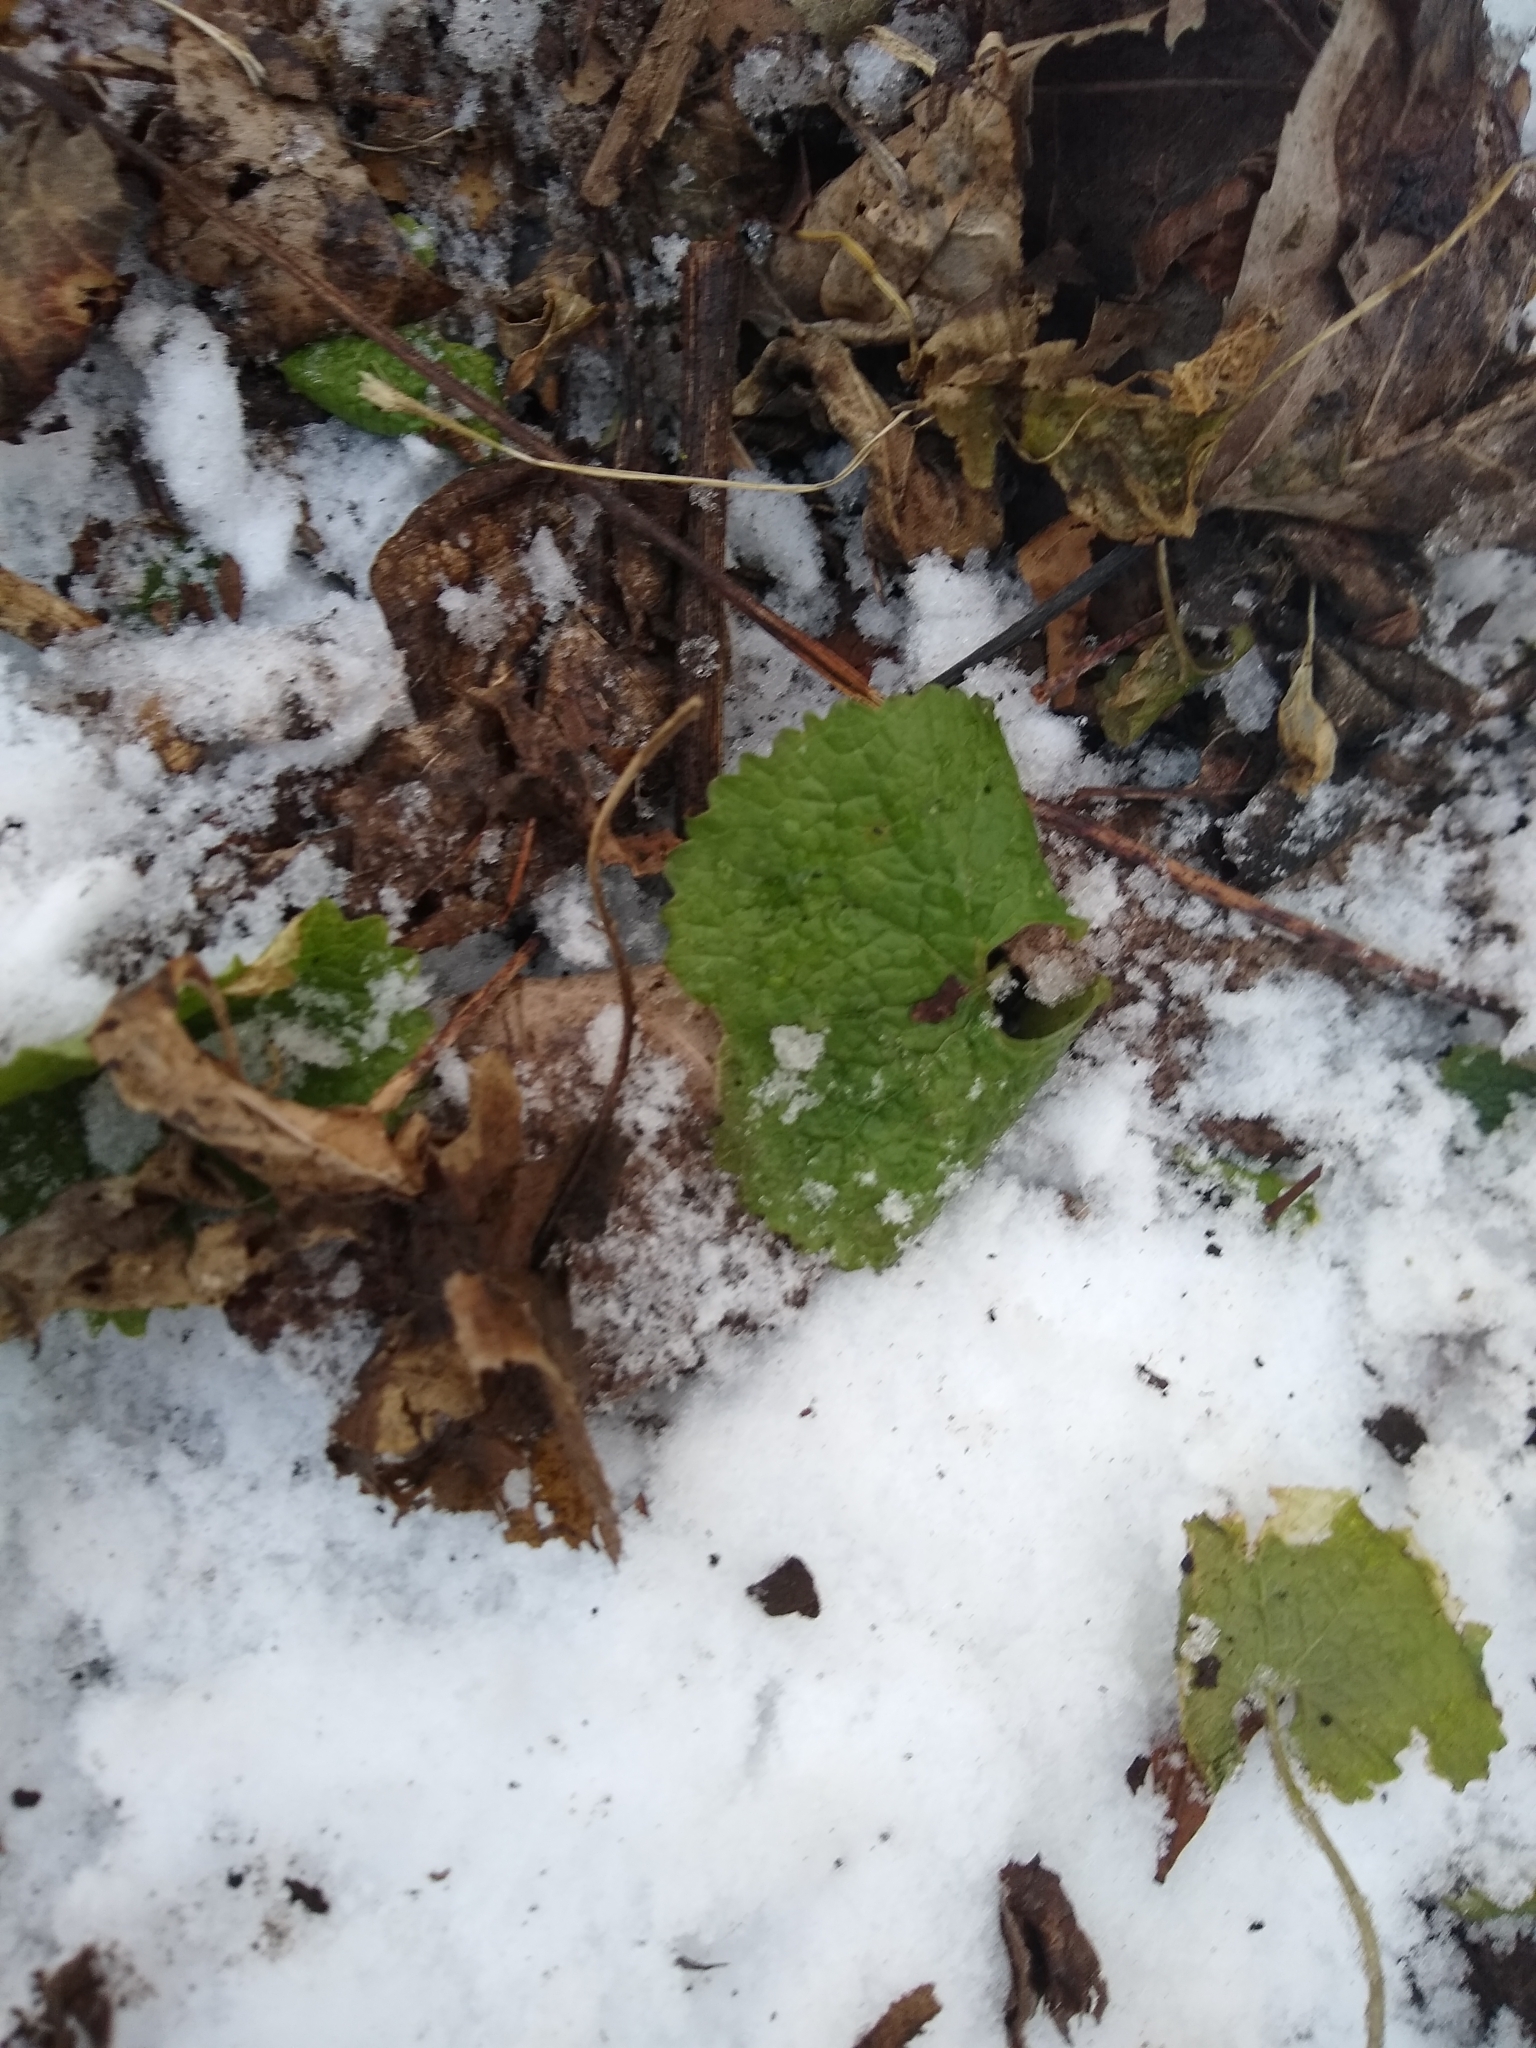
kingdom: Plantae
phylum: Tracheophyta
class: Magnoliopsida
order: Brassicales
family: Brassicaceae
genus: Alliaria
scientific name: Alliaria petiolata
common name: Garlic mustard
